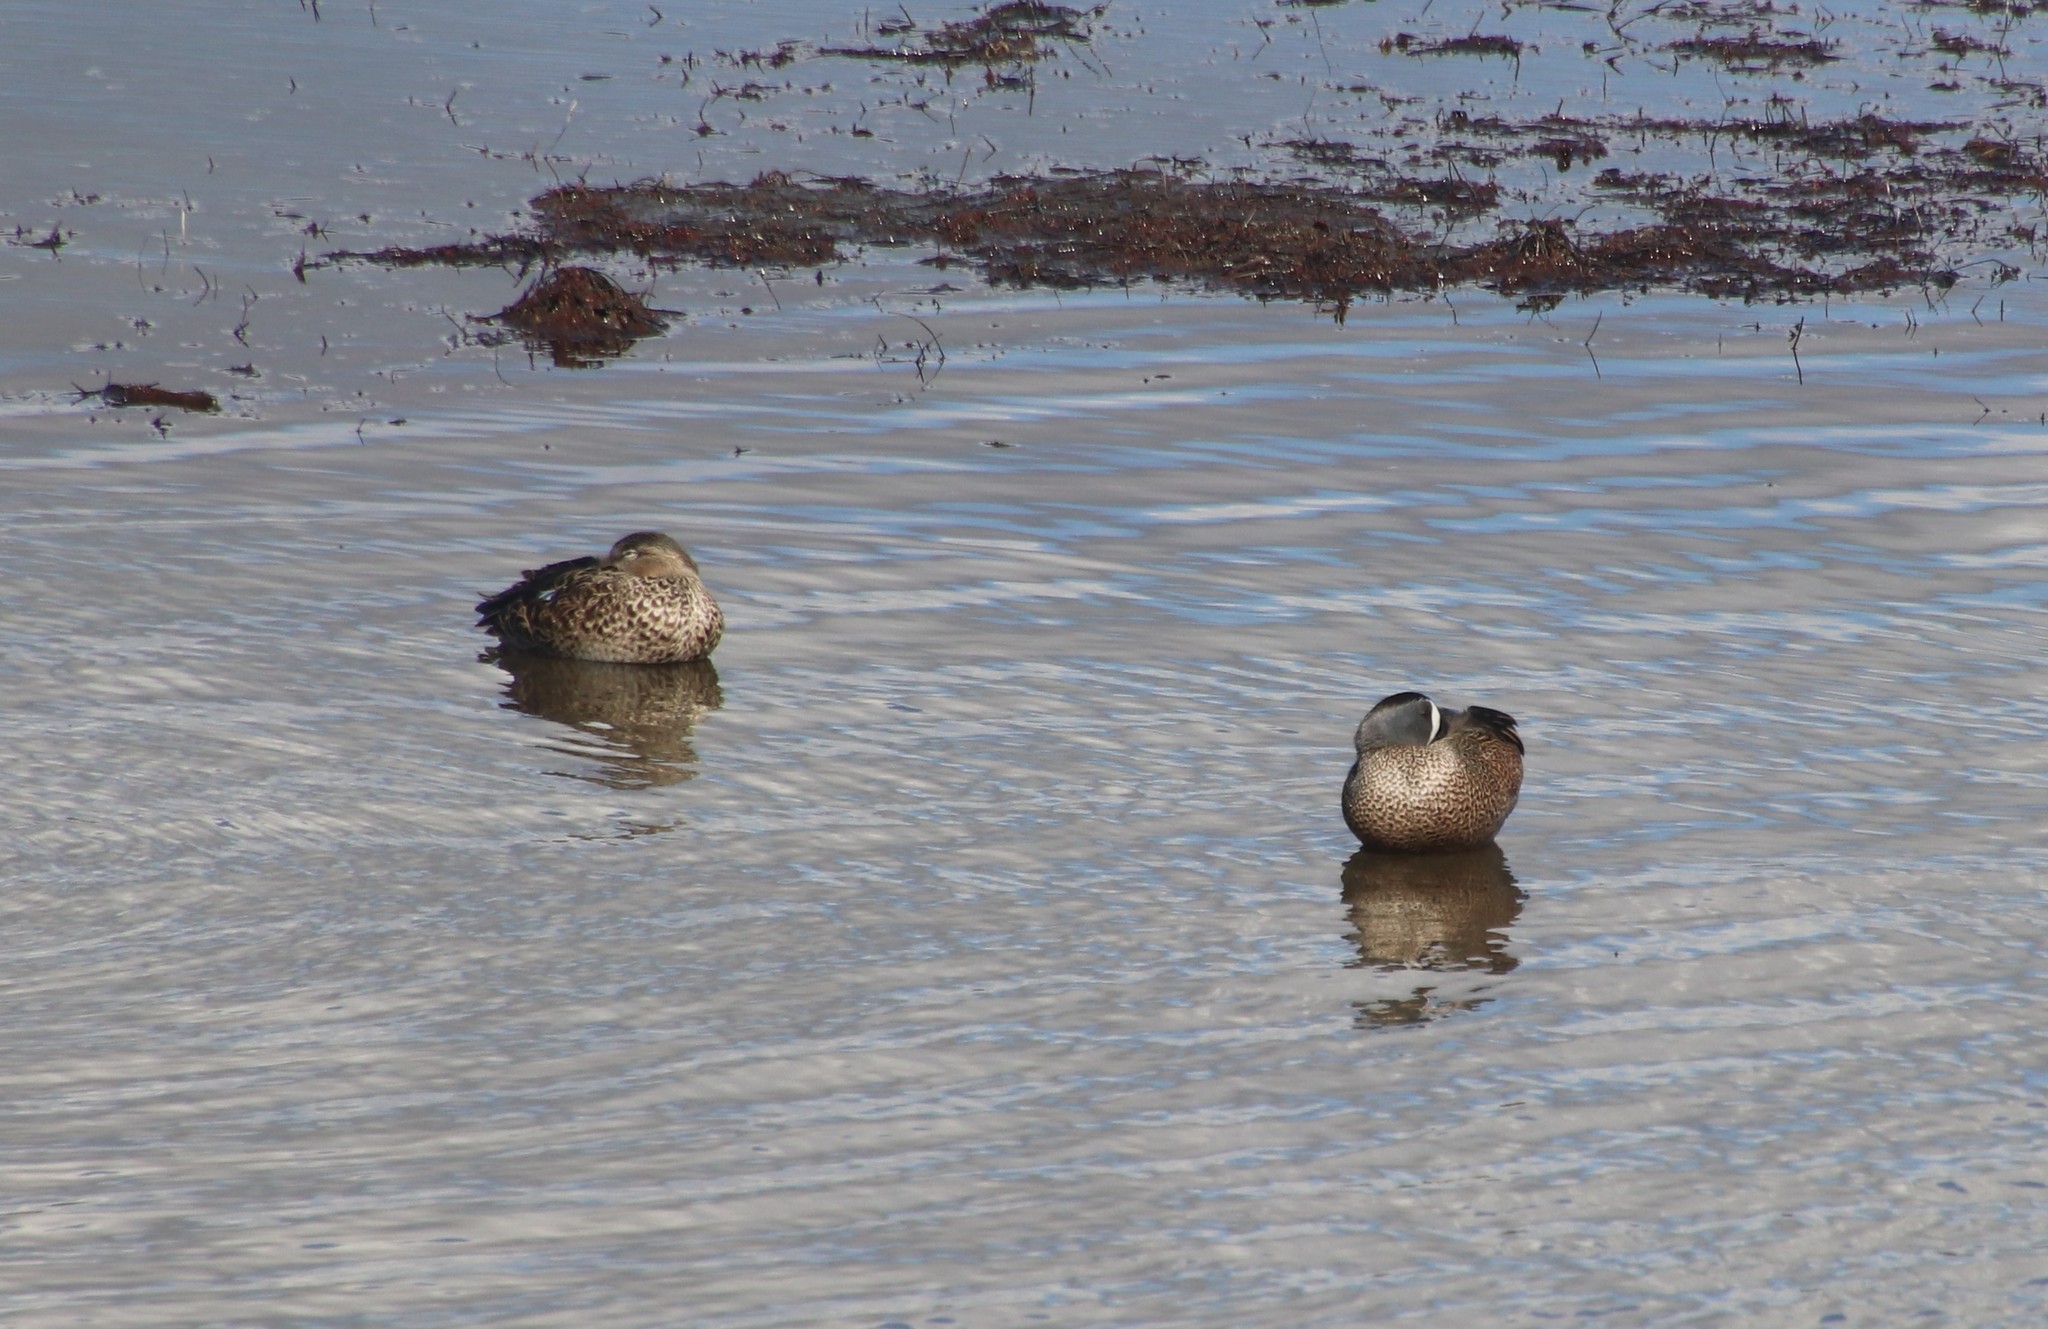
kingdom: Animalia
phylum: Chordata
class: Aves
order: Anseriformes
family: Anatidae
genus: Spatula
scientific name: Spatula discors
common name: Blue-winged teal
